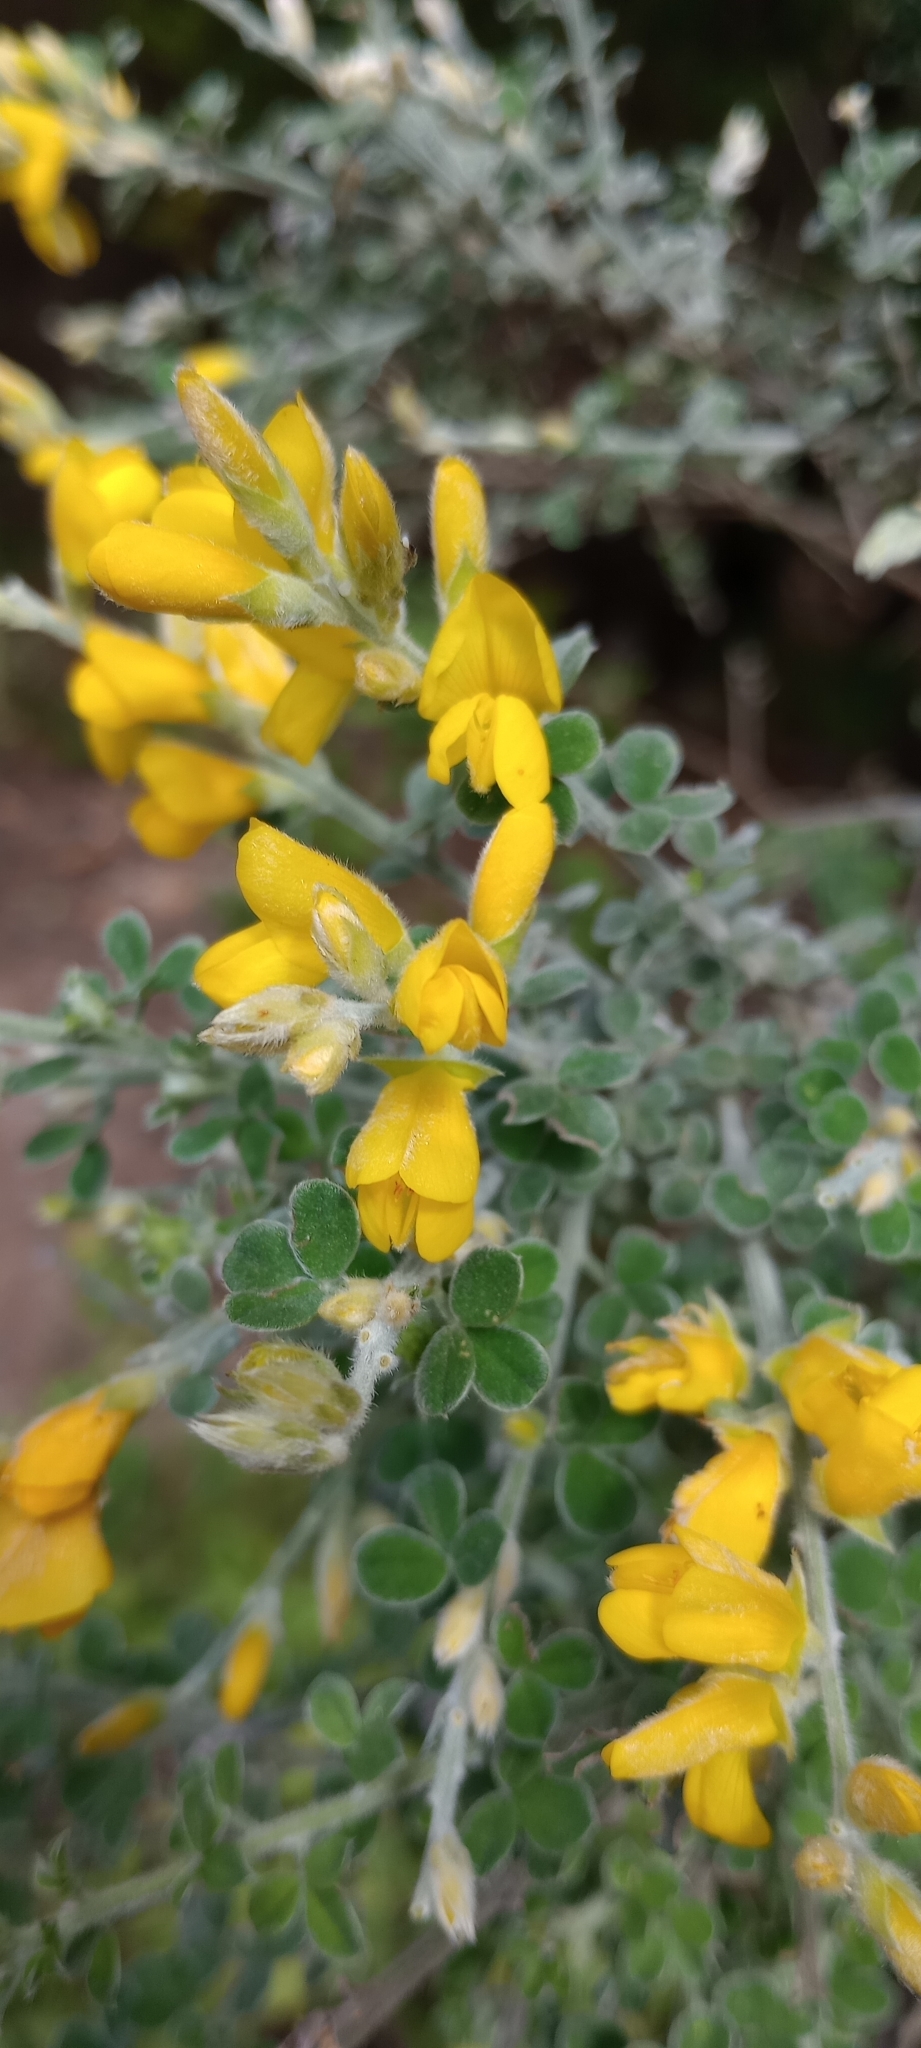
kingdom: Plantae
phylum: Tracheophyta
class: Magnoliopsida
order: Fabales
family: Fabaceae
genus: Genista
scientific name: Genista canariensis
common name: Canary broom
